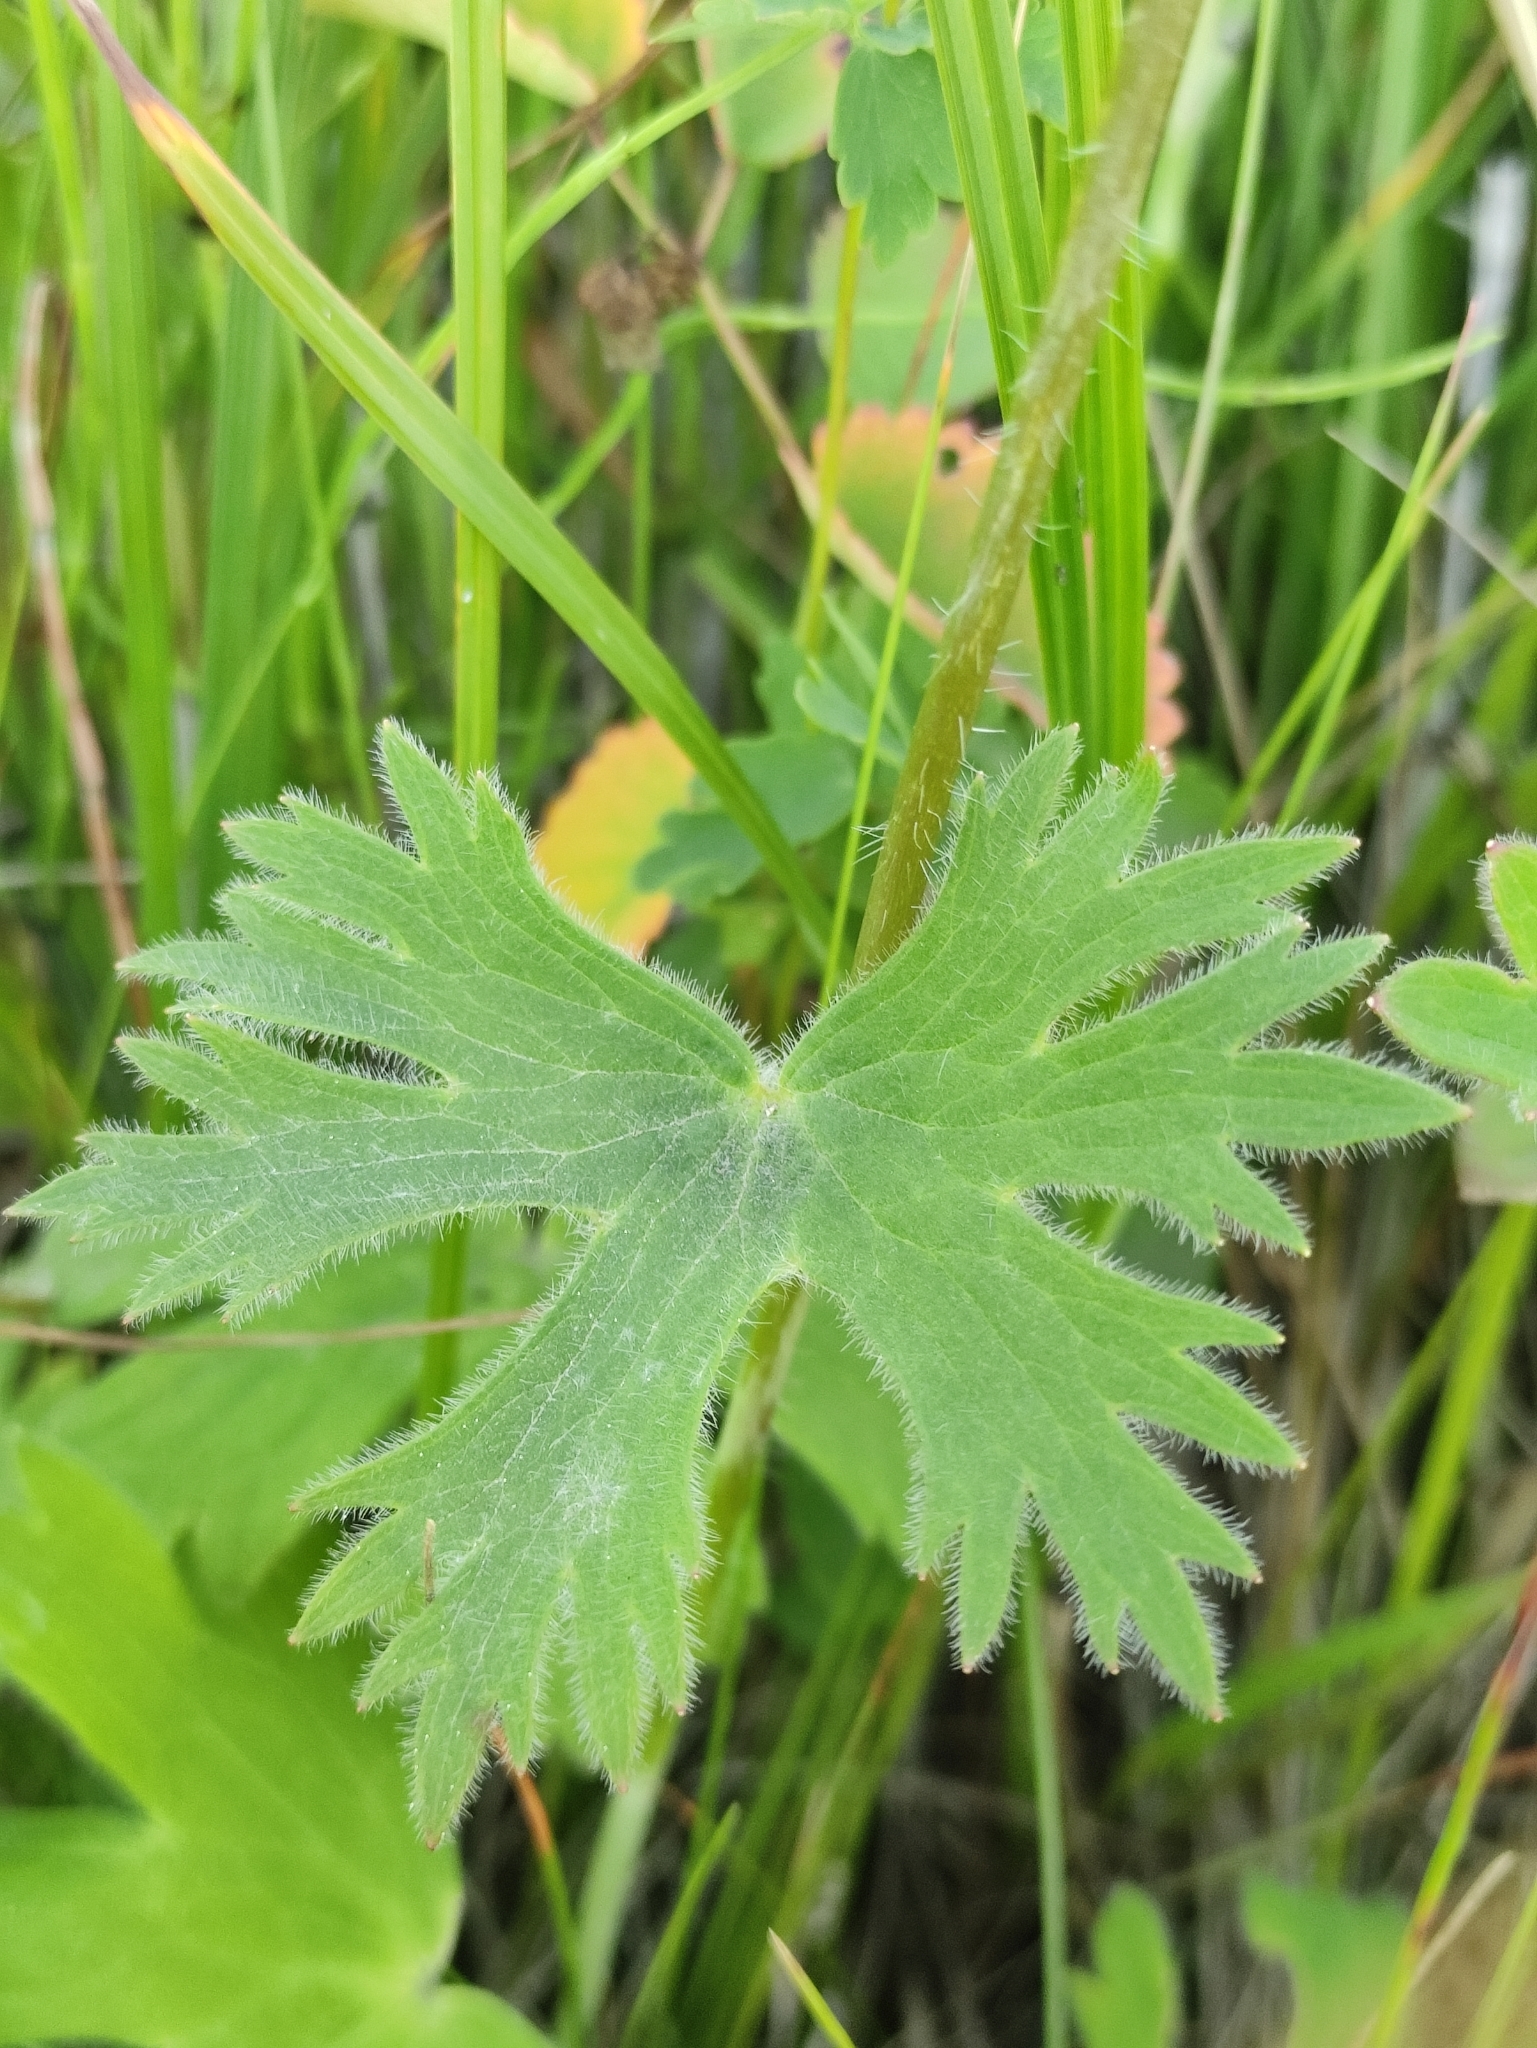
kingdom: Plantae
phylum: Tracheophyta
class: Magnoliopsida
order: Ranunculales
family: Ranunculaceae
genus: Delphinium
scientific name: Delphinium crassifolium
